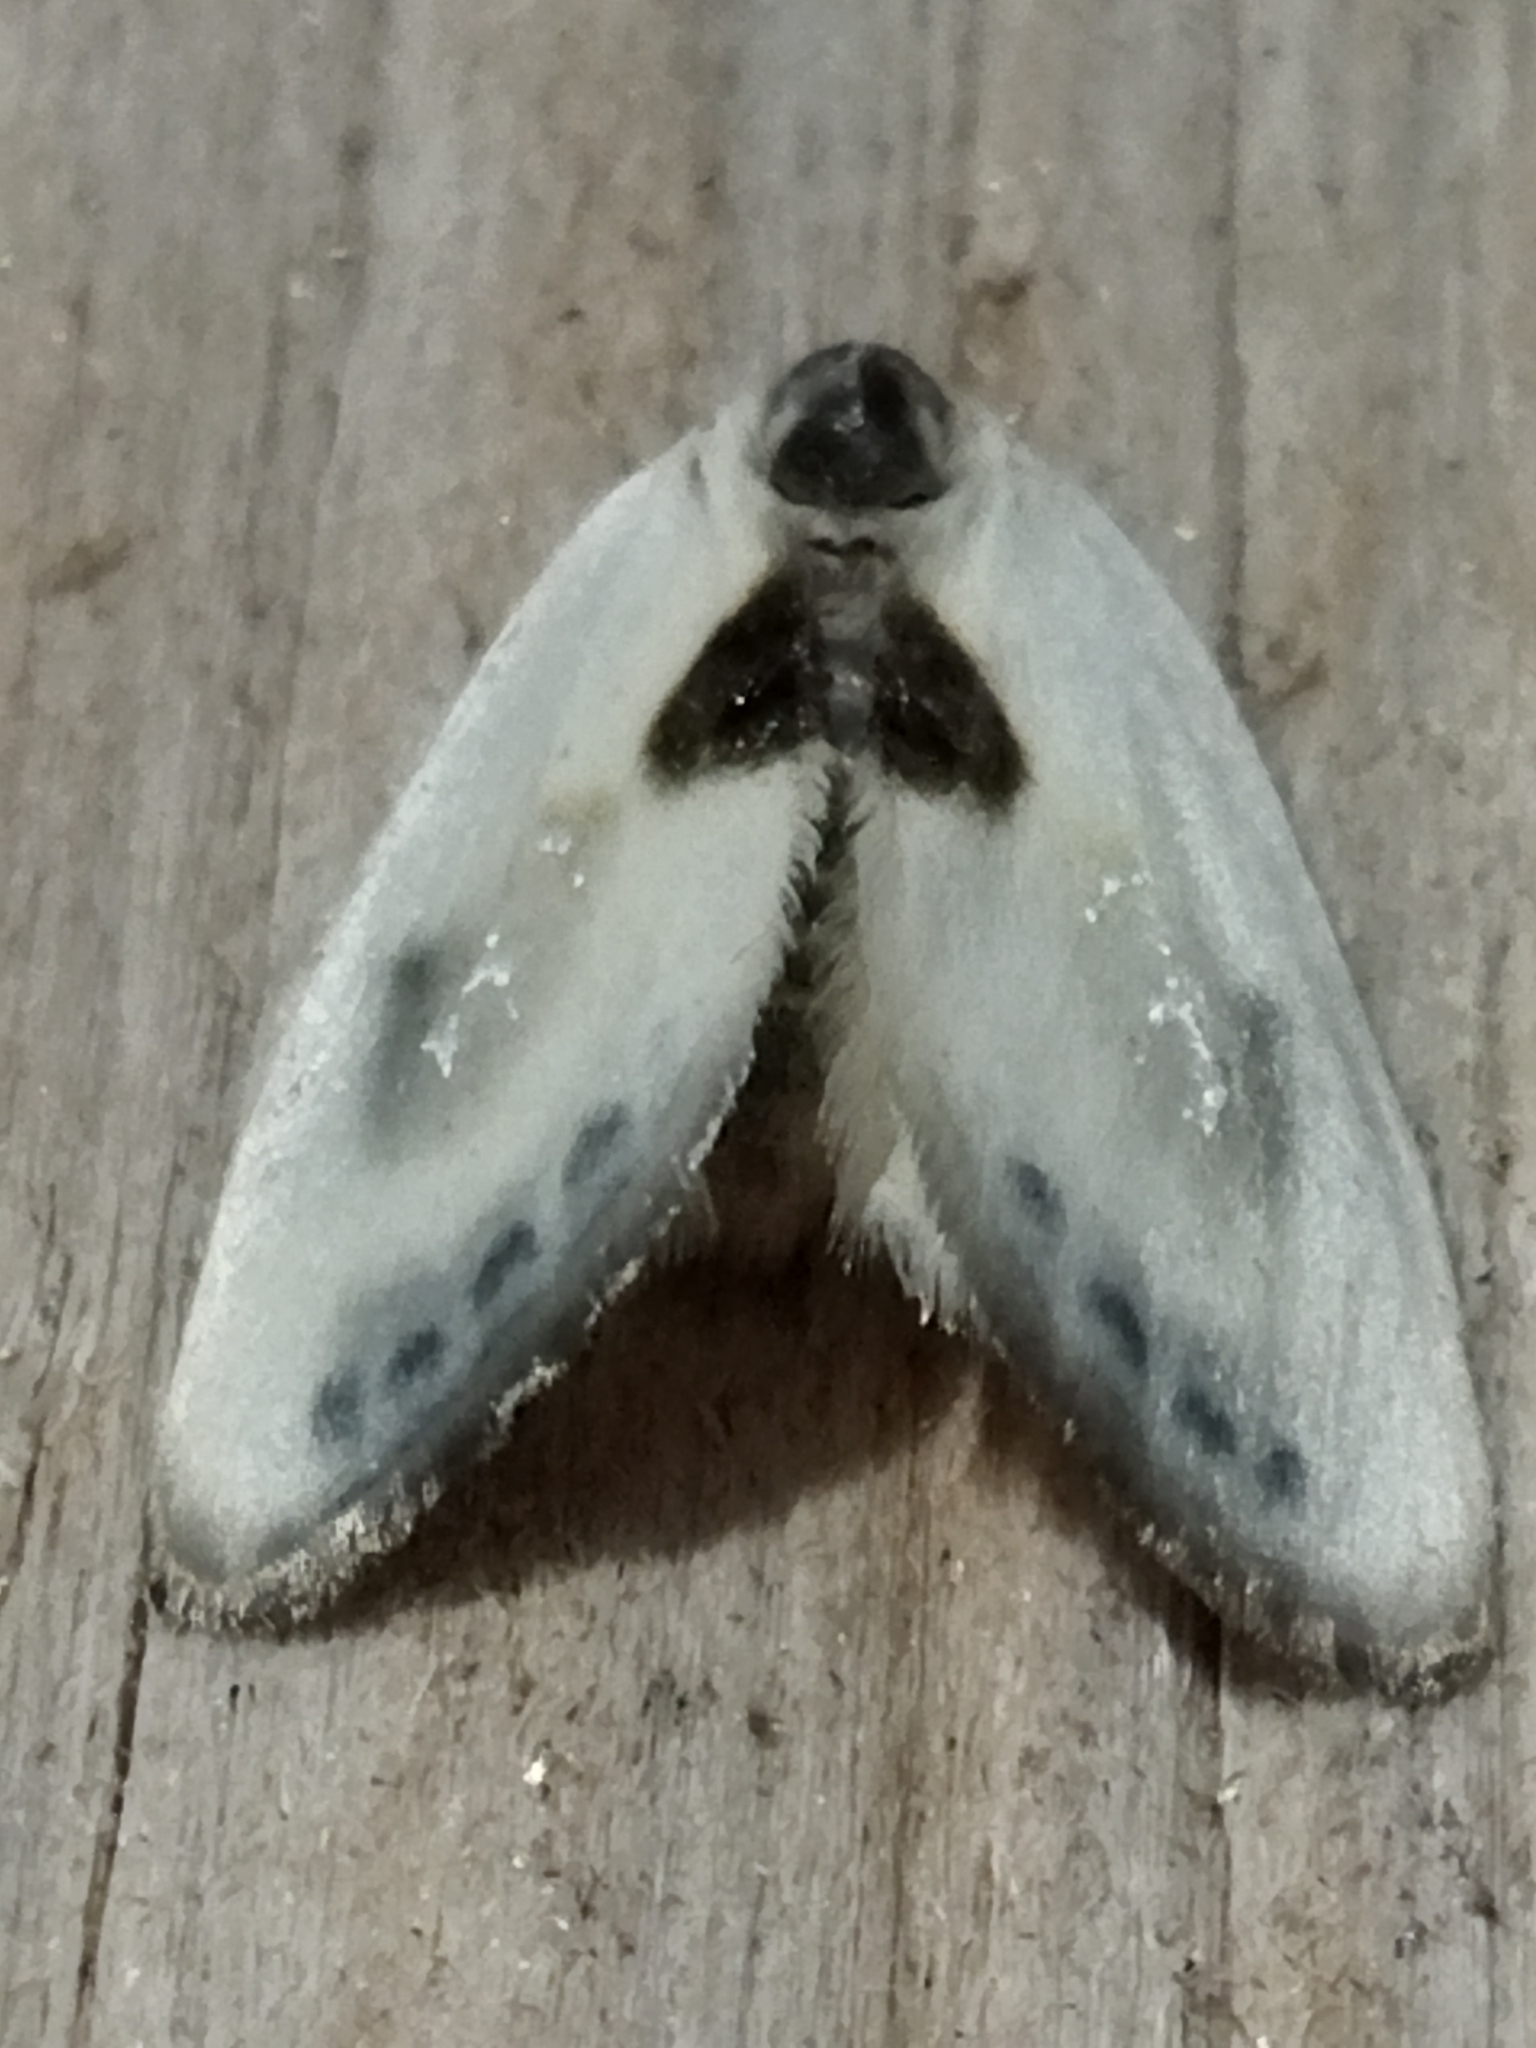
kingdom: Animalia
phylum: Arthropoda
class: Insecta
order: Lepidoptera
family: Drepanidae
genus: Cilix
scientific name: Cilix asiatica
